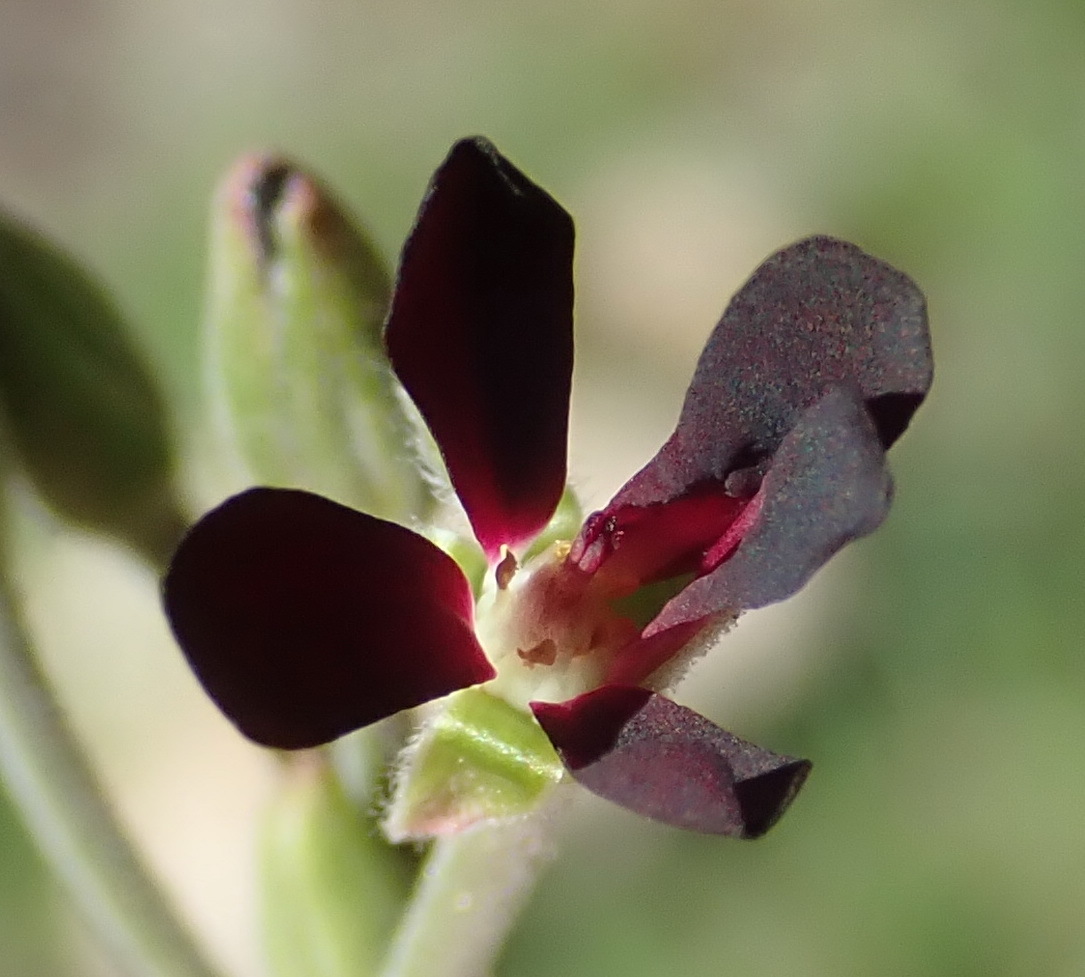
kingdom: Plantae
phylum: Tracheophyta
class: Magnoliopsida
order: Geraniales
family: Geraniaceae
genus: Pelargonium
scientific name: Pelargonium sidoides
